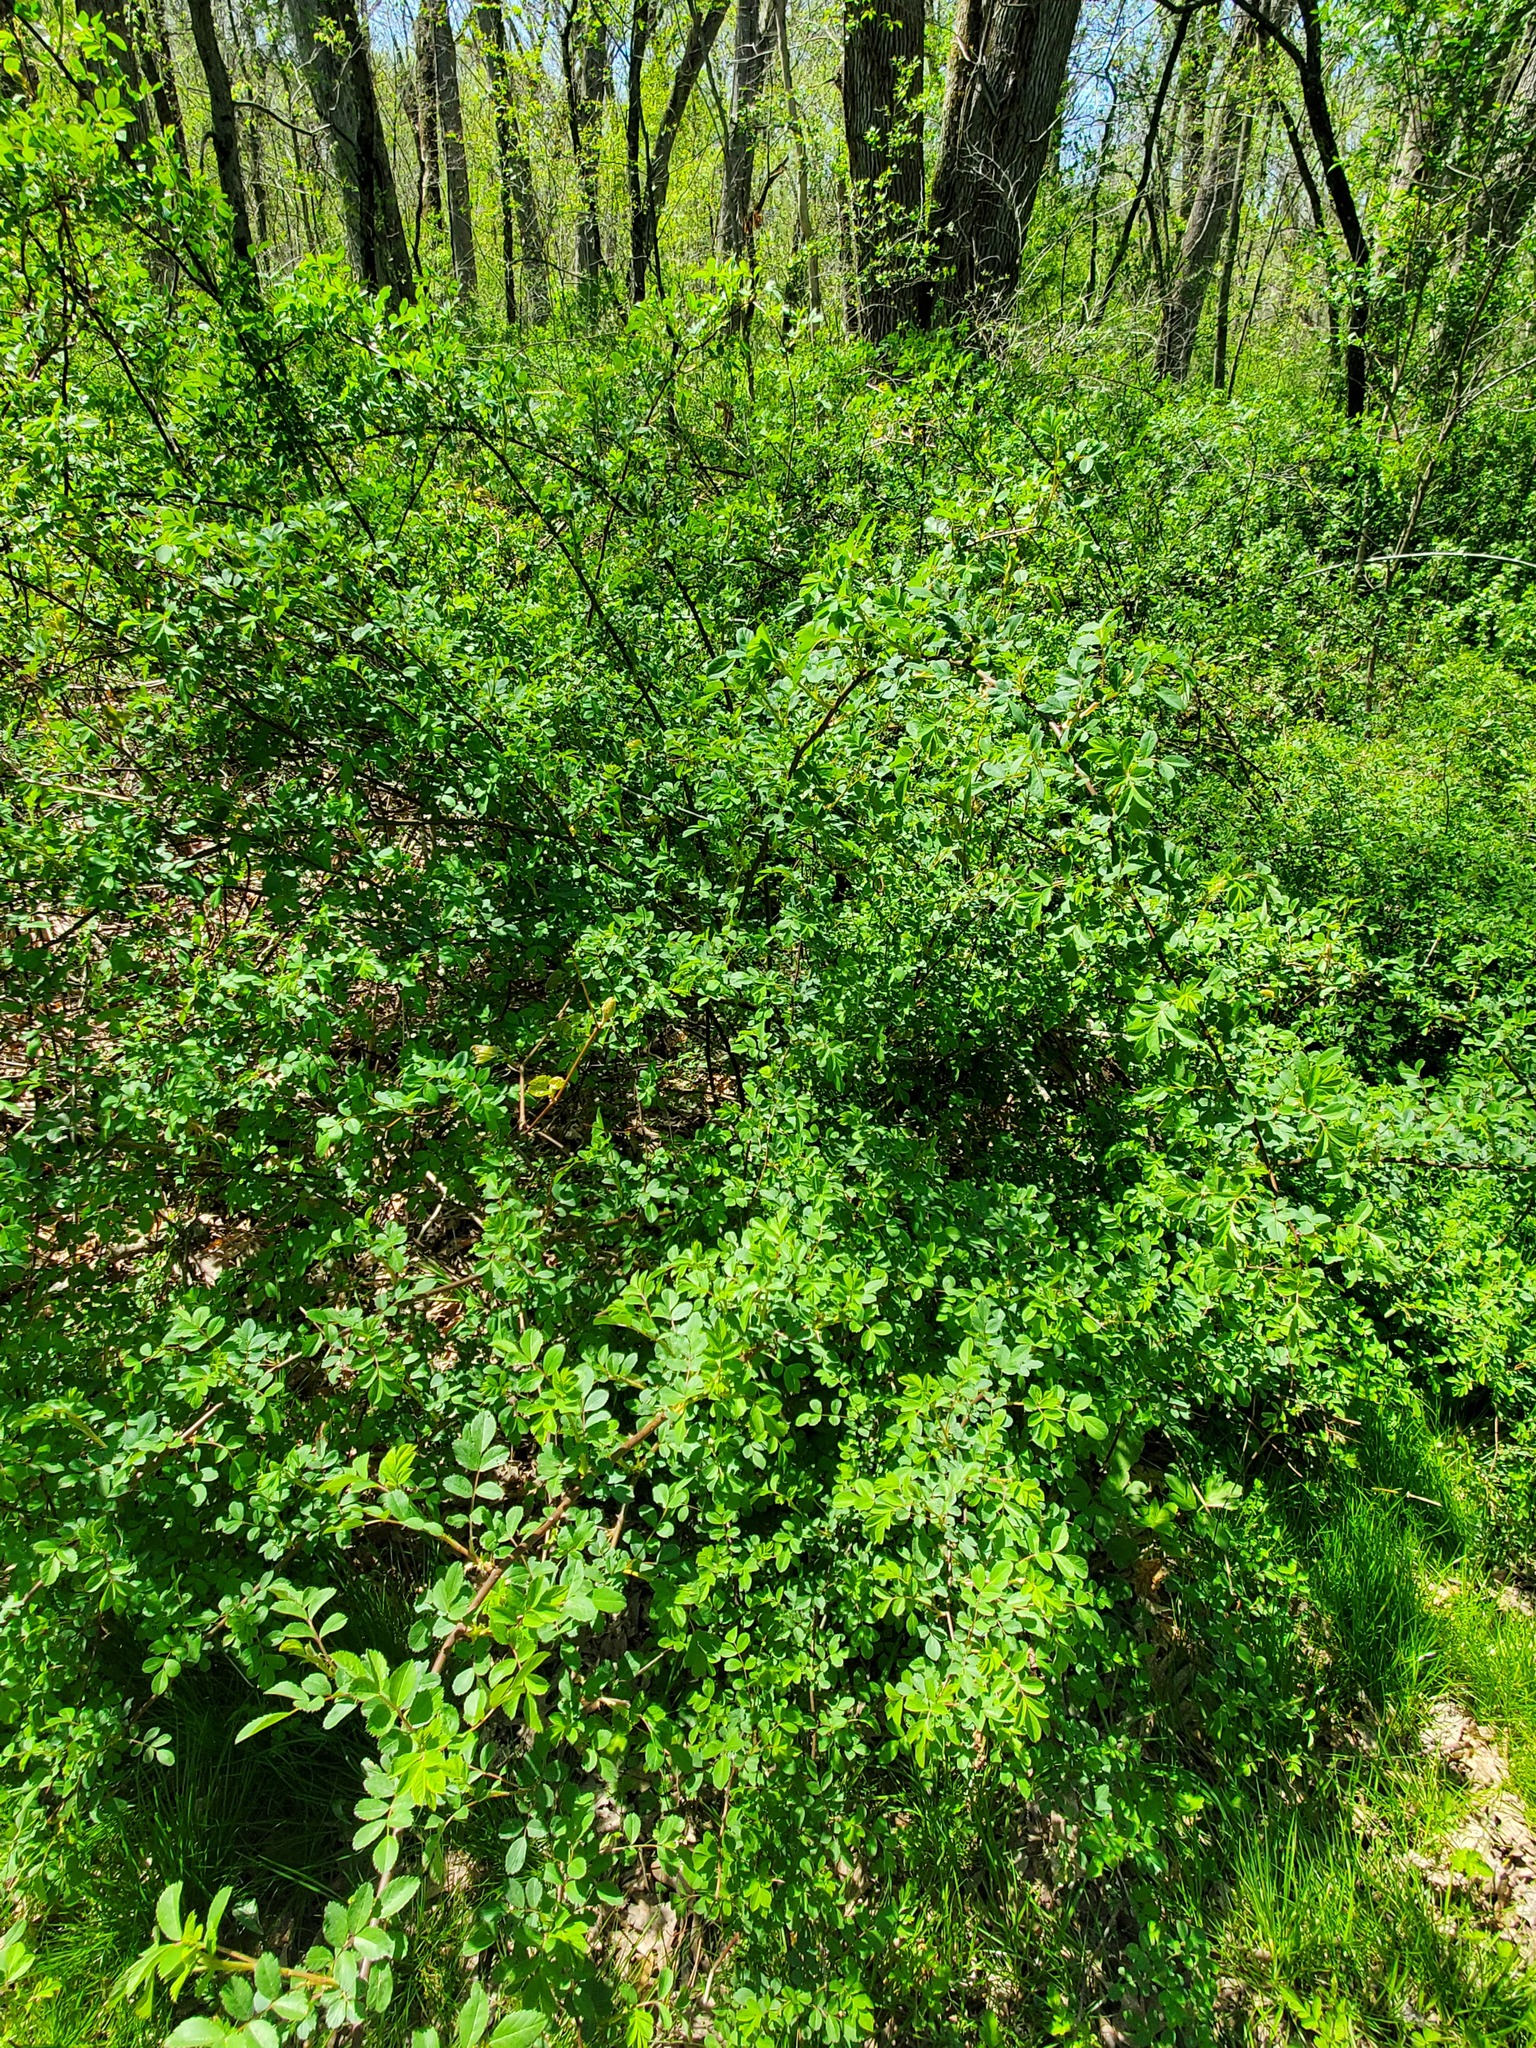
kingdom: Plantae
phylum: Tracheophyta
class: Magnoliopsida
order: Rosales
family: Rosaceae
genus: Rosa
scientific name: Rosa multiflora
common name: Multiflora rose
